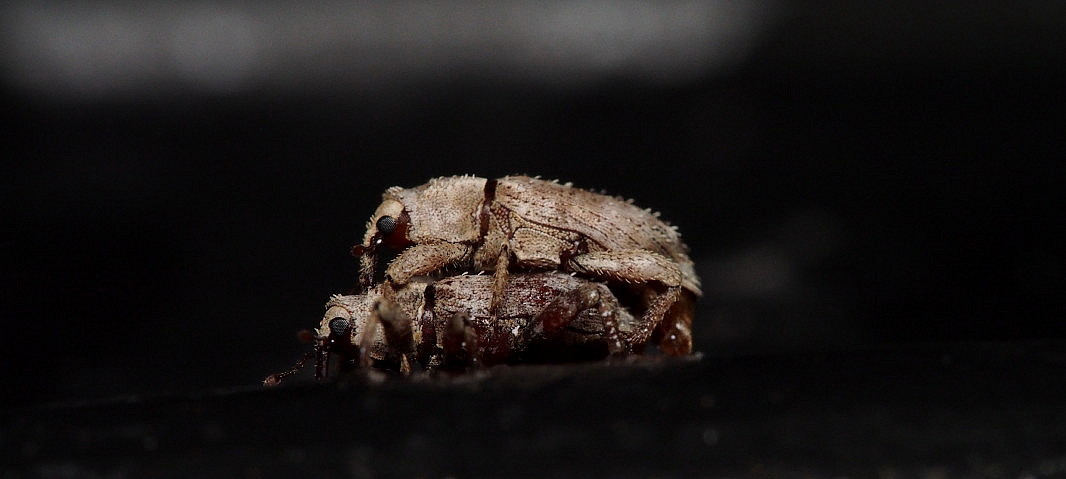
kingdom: Animalia
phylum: Arthropoda
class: Insecta
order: Coleoptera
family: Curculionidae
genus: Mitrastethus
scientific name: Mitrastethus baridioides
